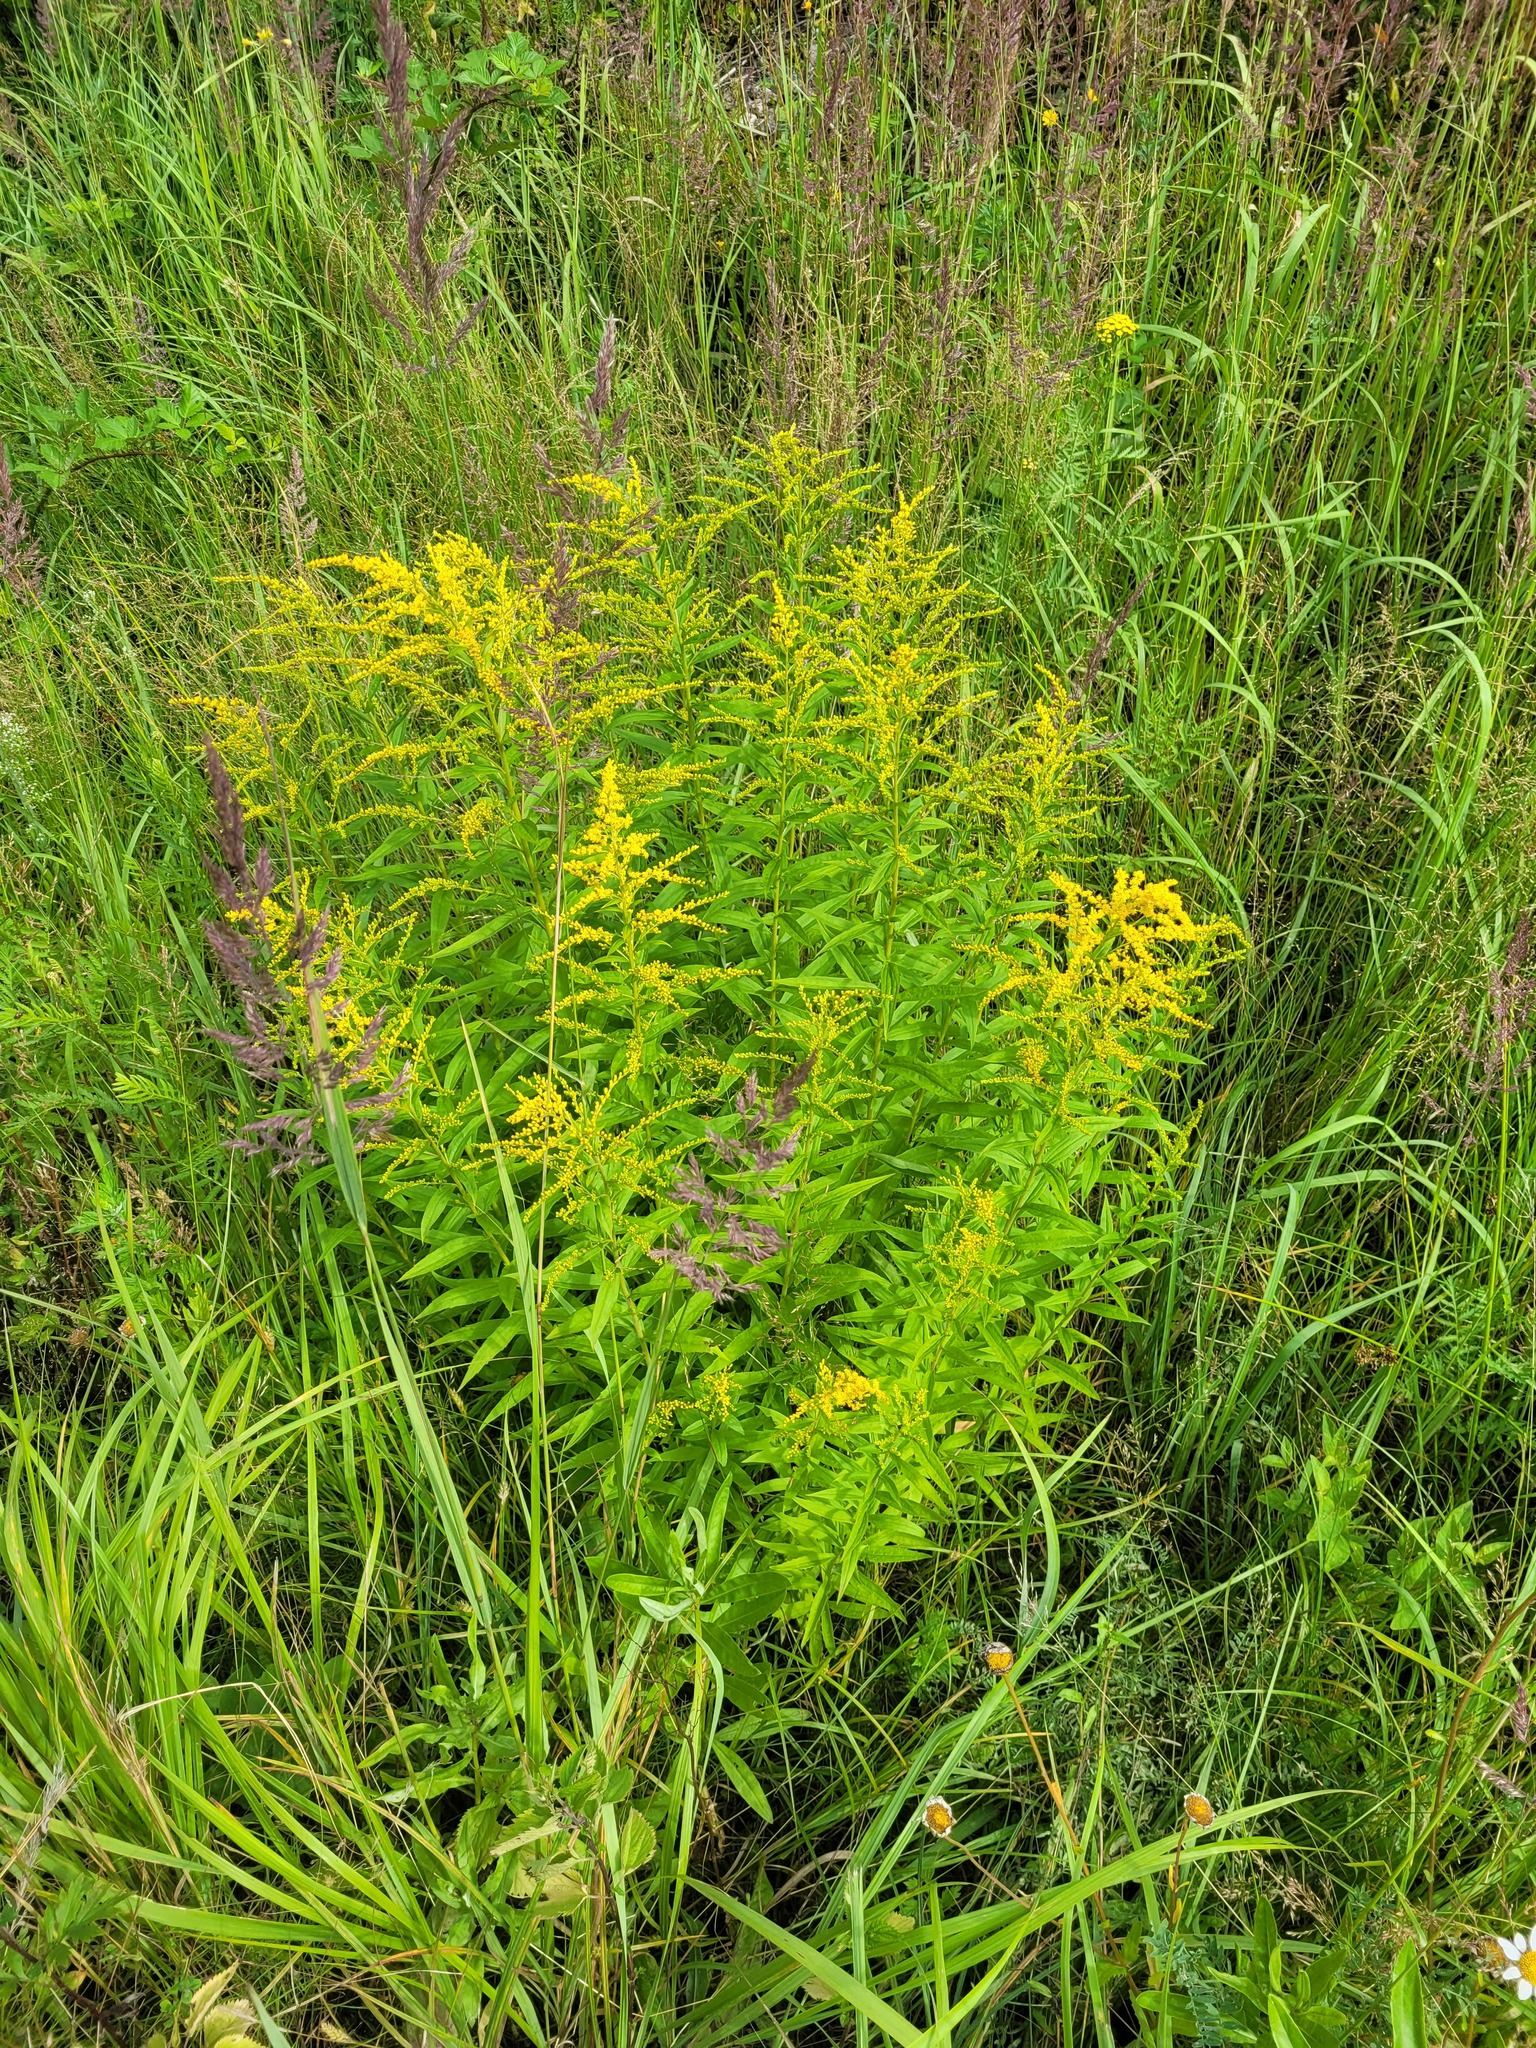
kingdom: Plantae
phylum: Tracheophyta
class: Magnoliopsida
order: Asterales
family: Asteraceae
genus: Solidago
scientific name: Solidago canadensis
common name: Canada goldenrod
